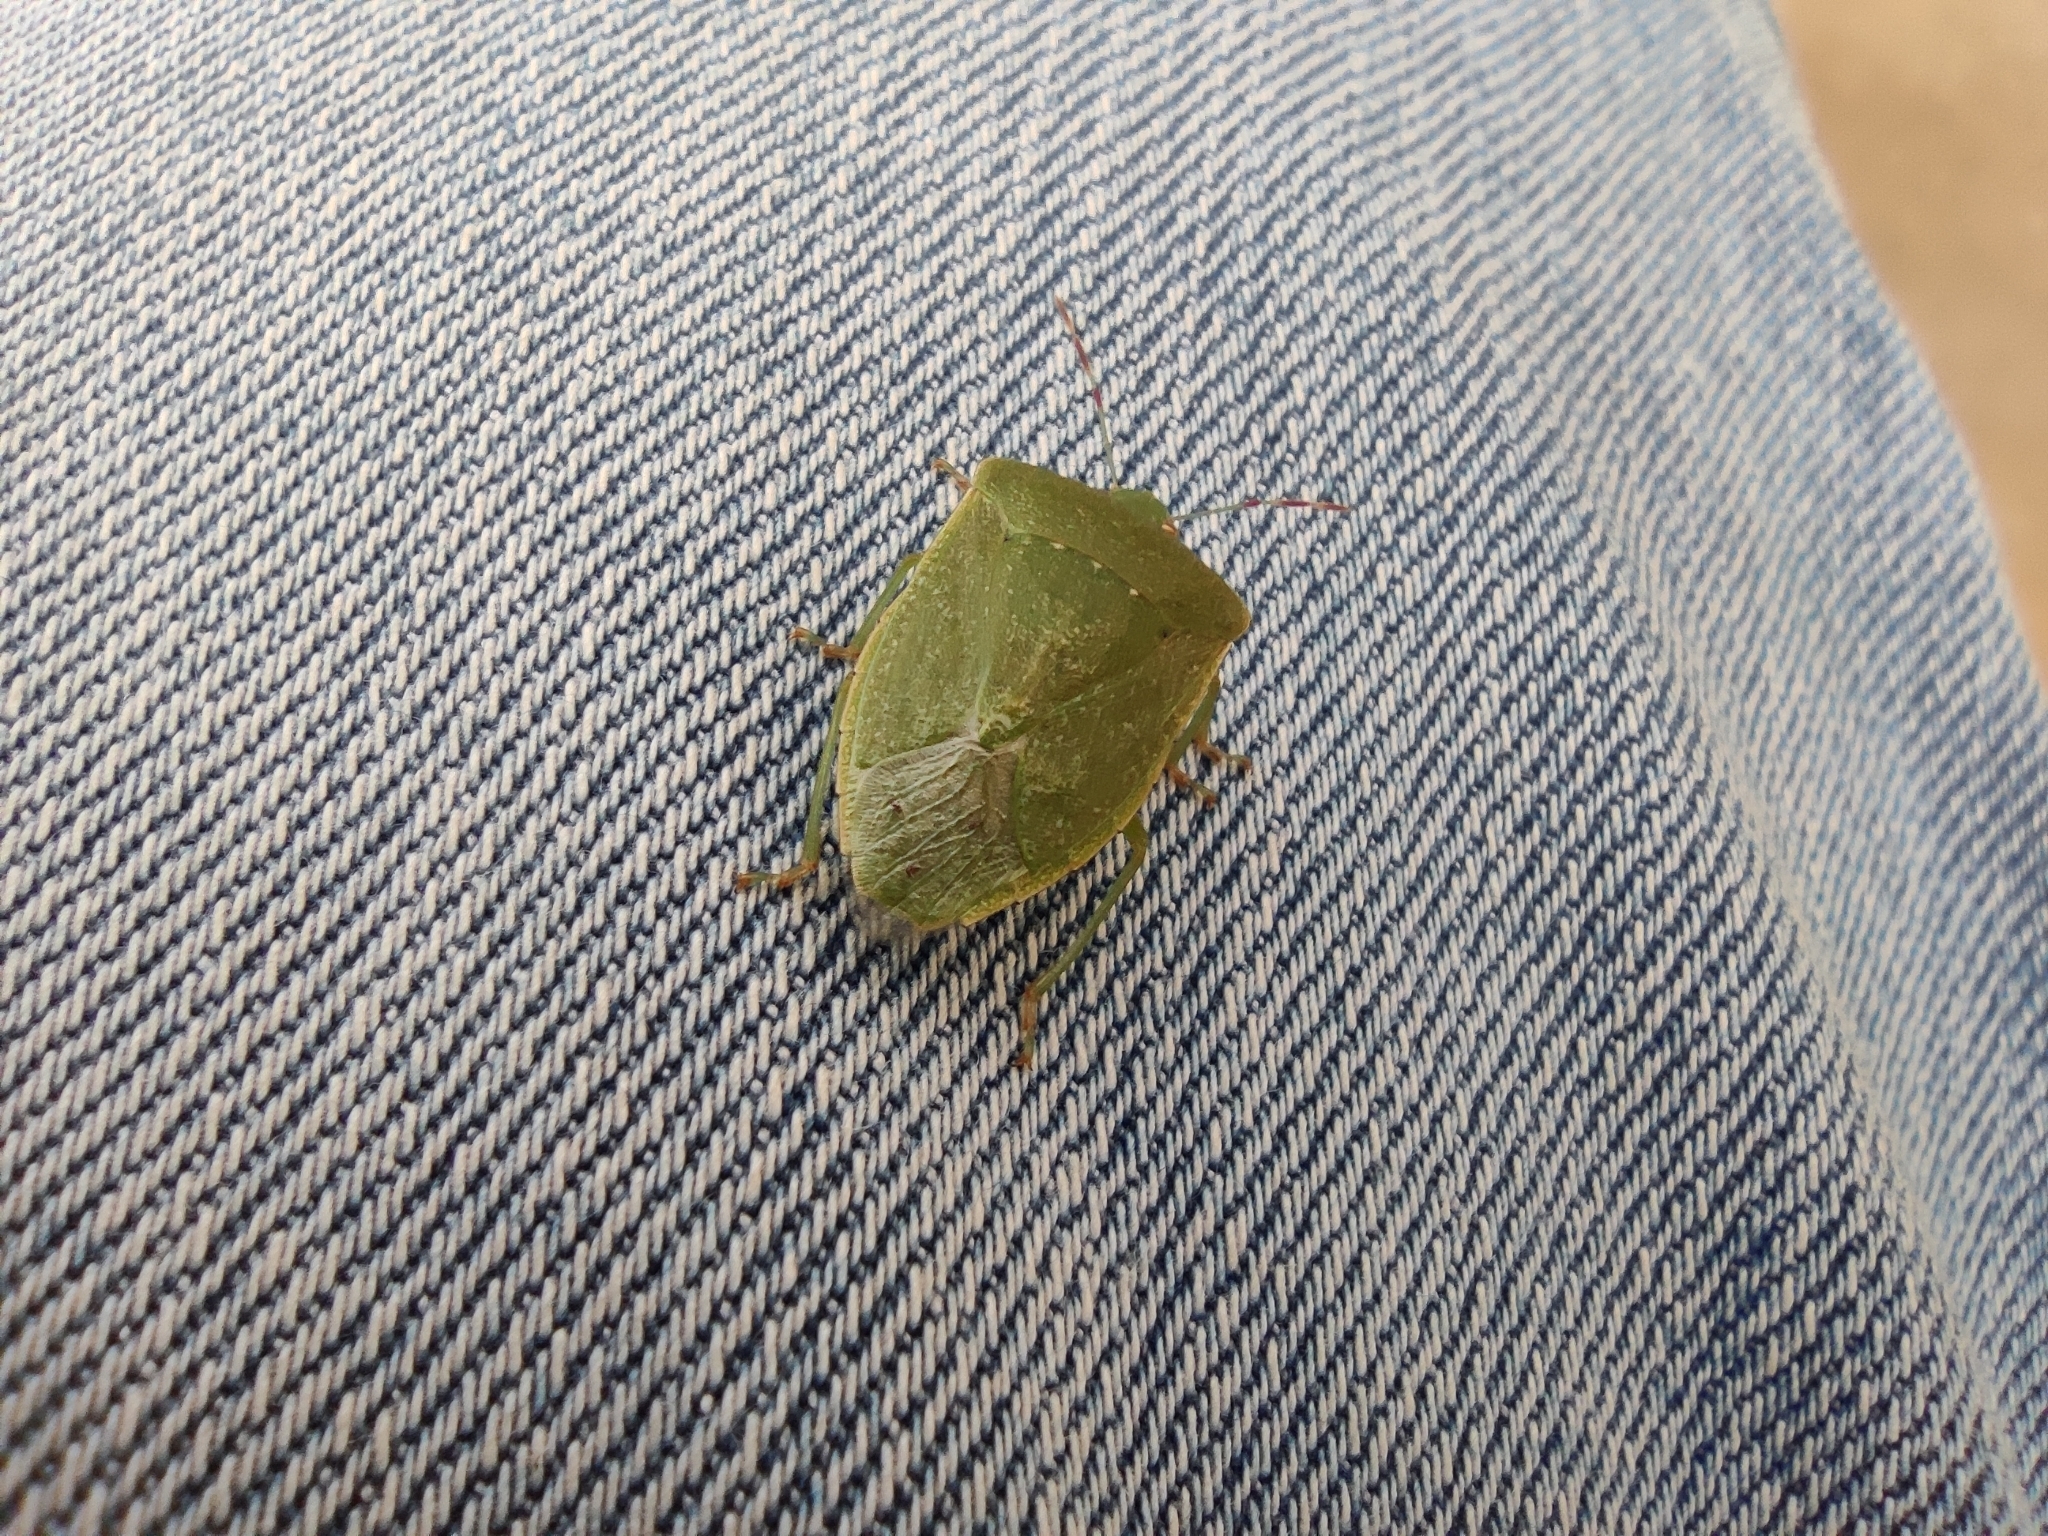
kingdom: Animalia
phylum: Arthropoda
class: Insecta
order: Hemiptera
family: Pentatomidae
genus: Nezara
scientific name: Nezara viridula
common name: Southern green stink bug
